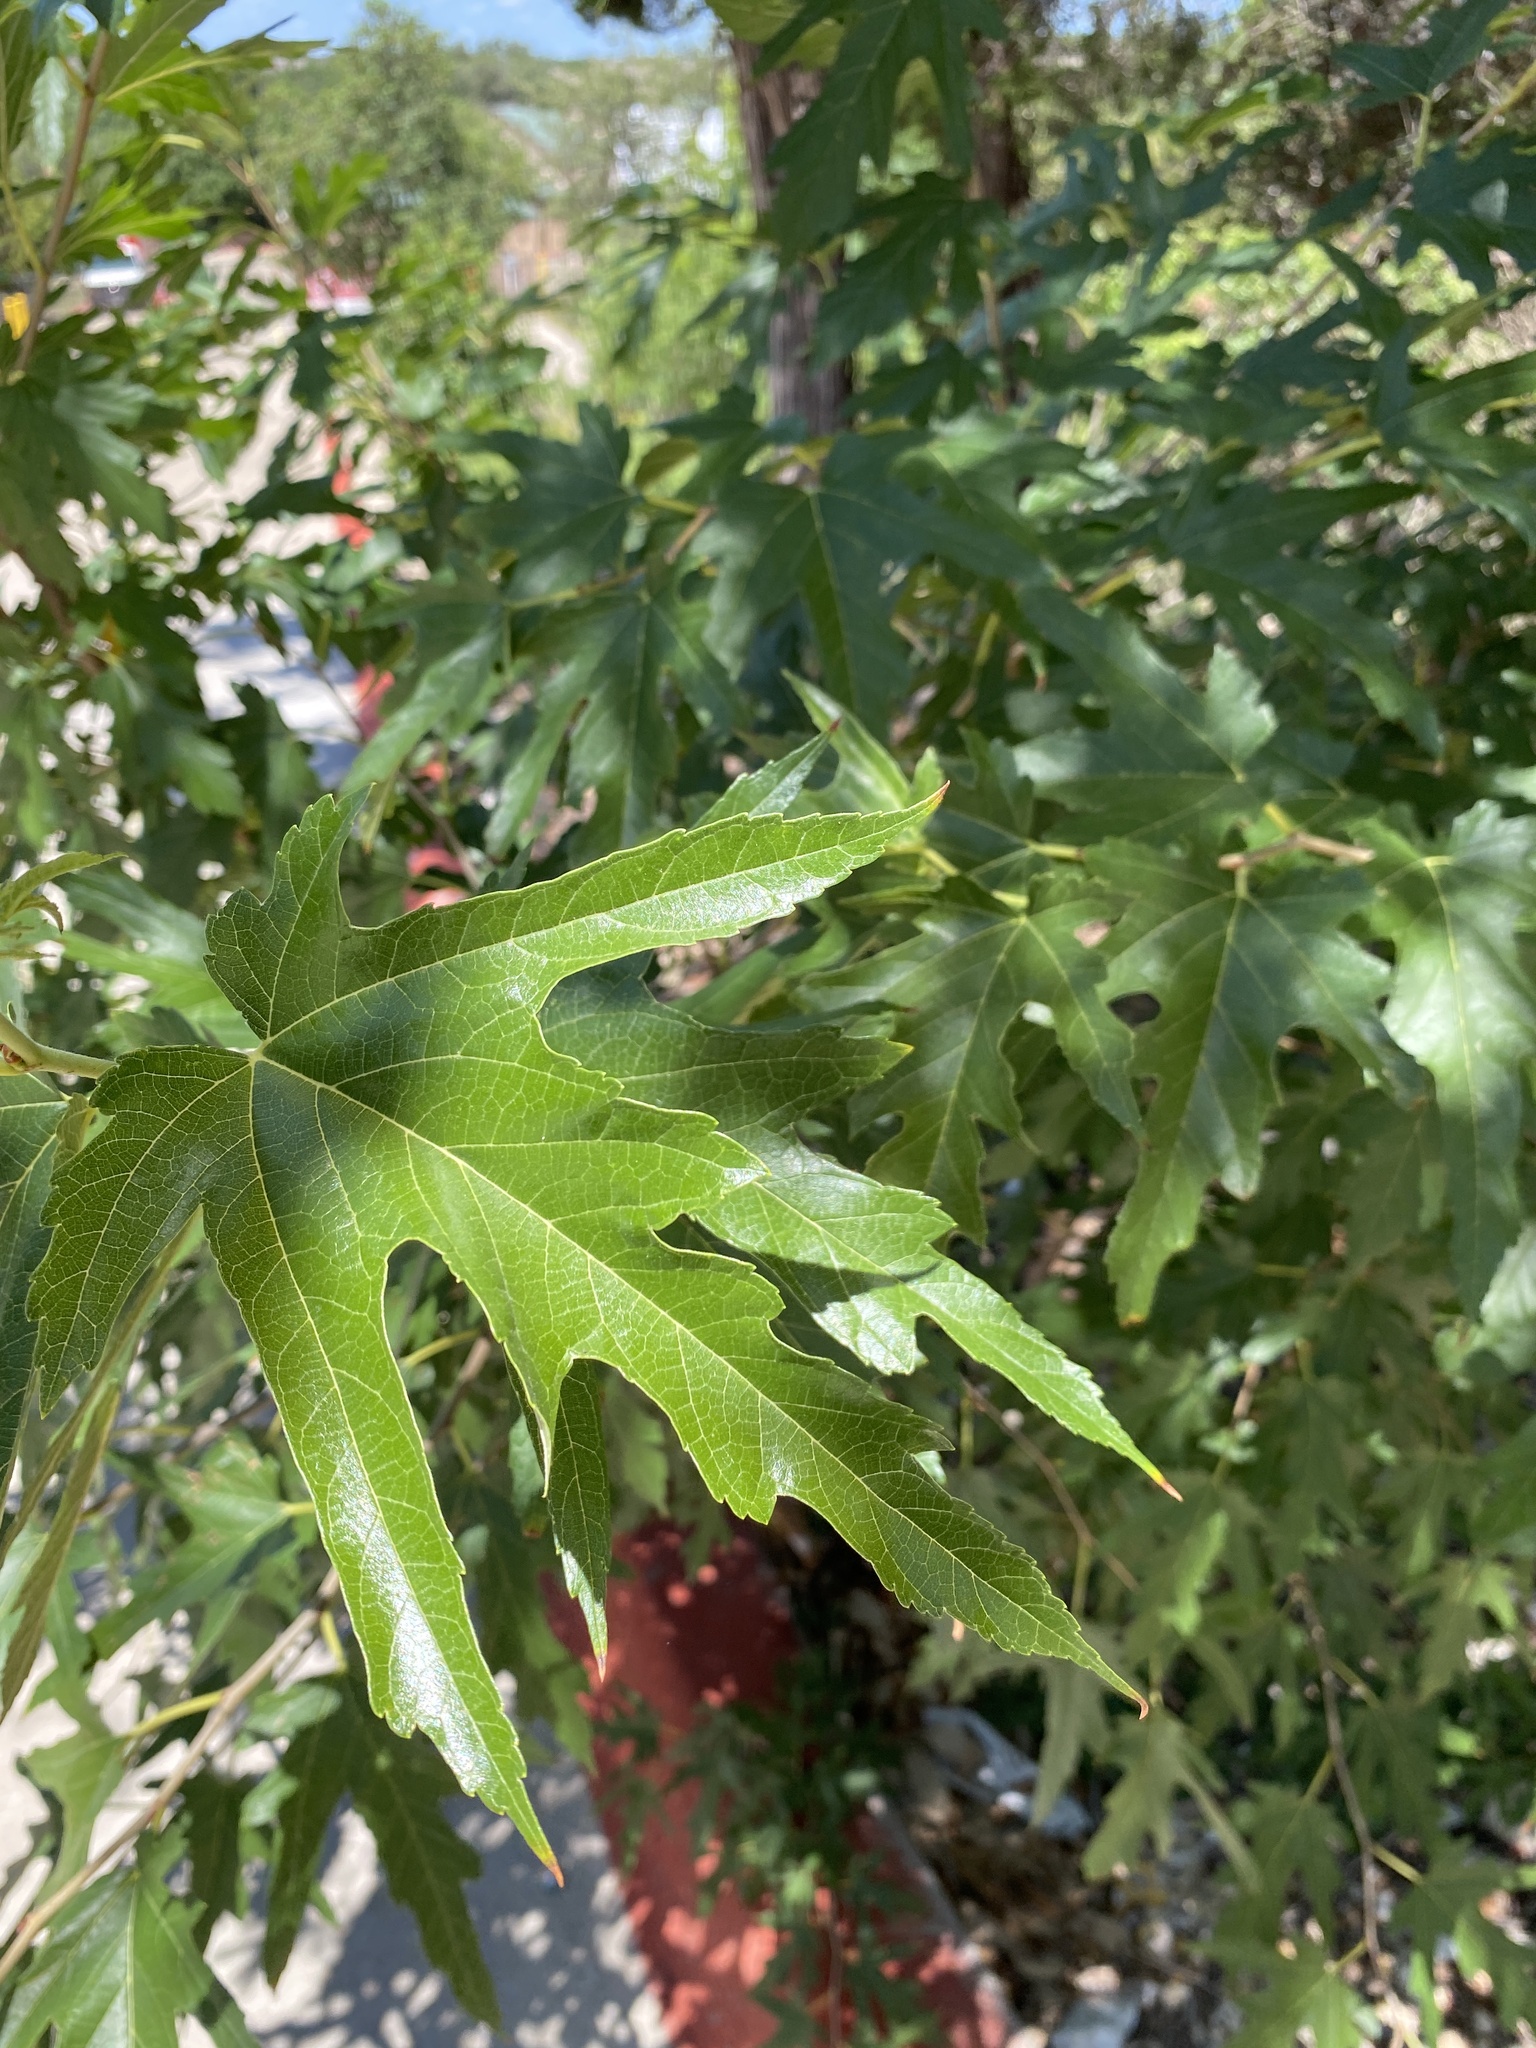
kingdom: Plantae
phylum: Tracheophyta
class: Magnoliopsida
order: Rosales
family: Moraceae
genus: Morus
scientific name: Morus indica
